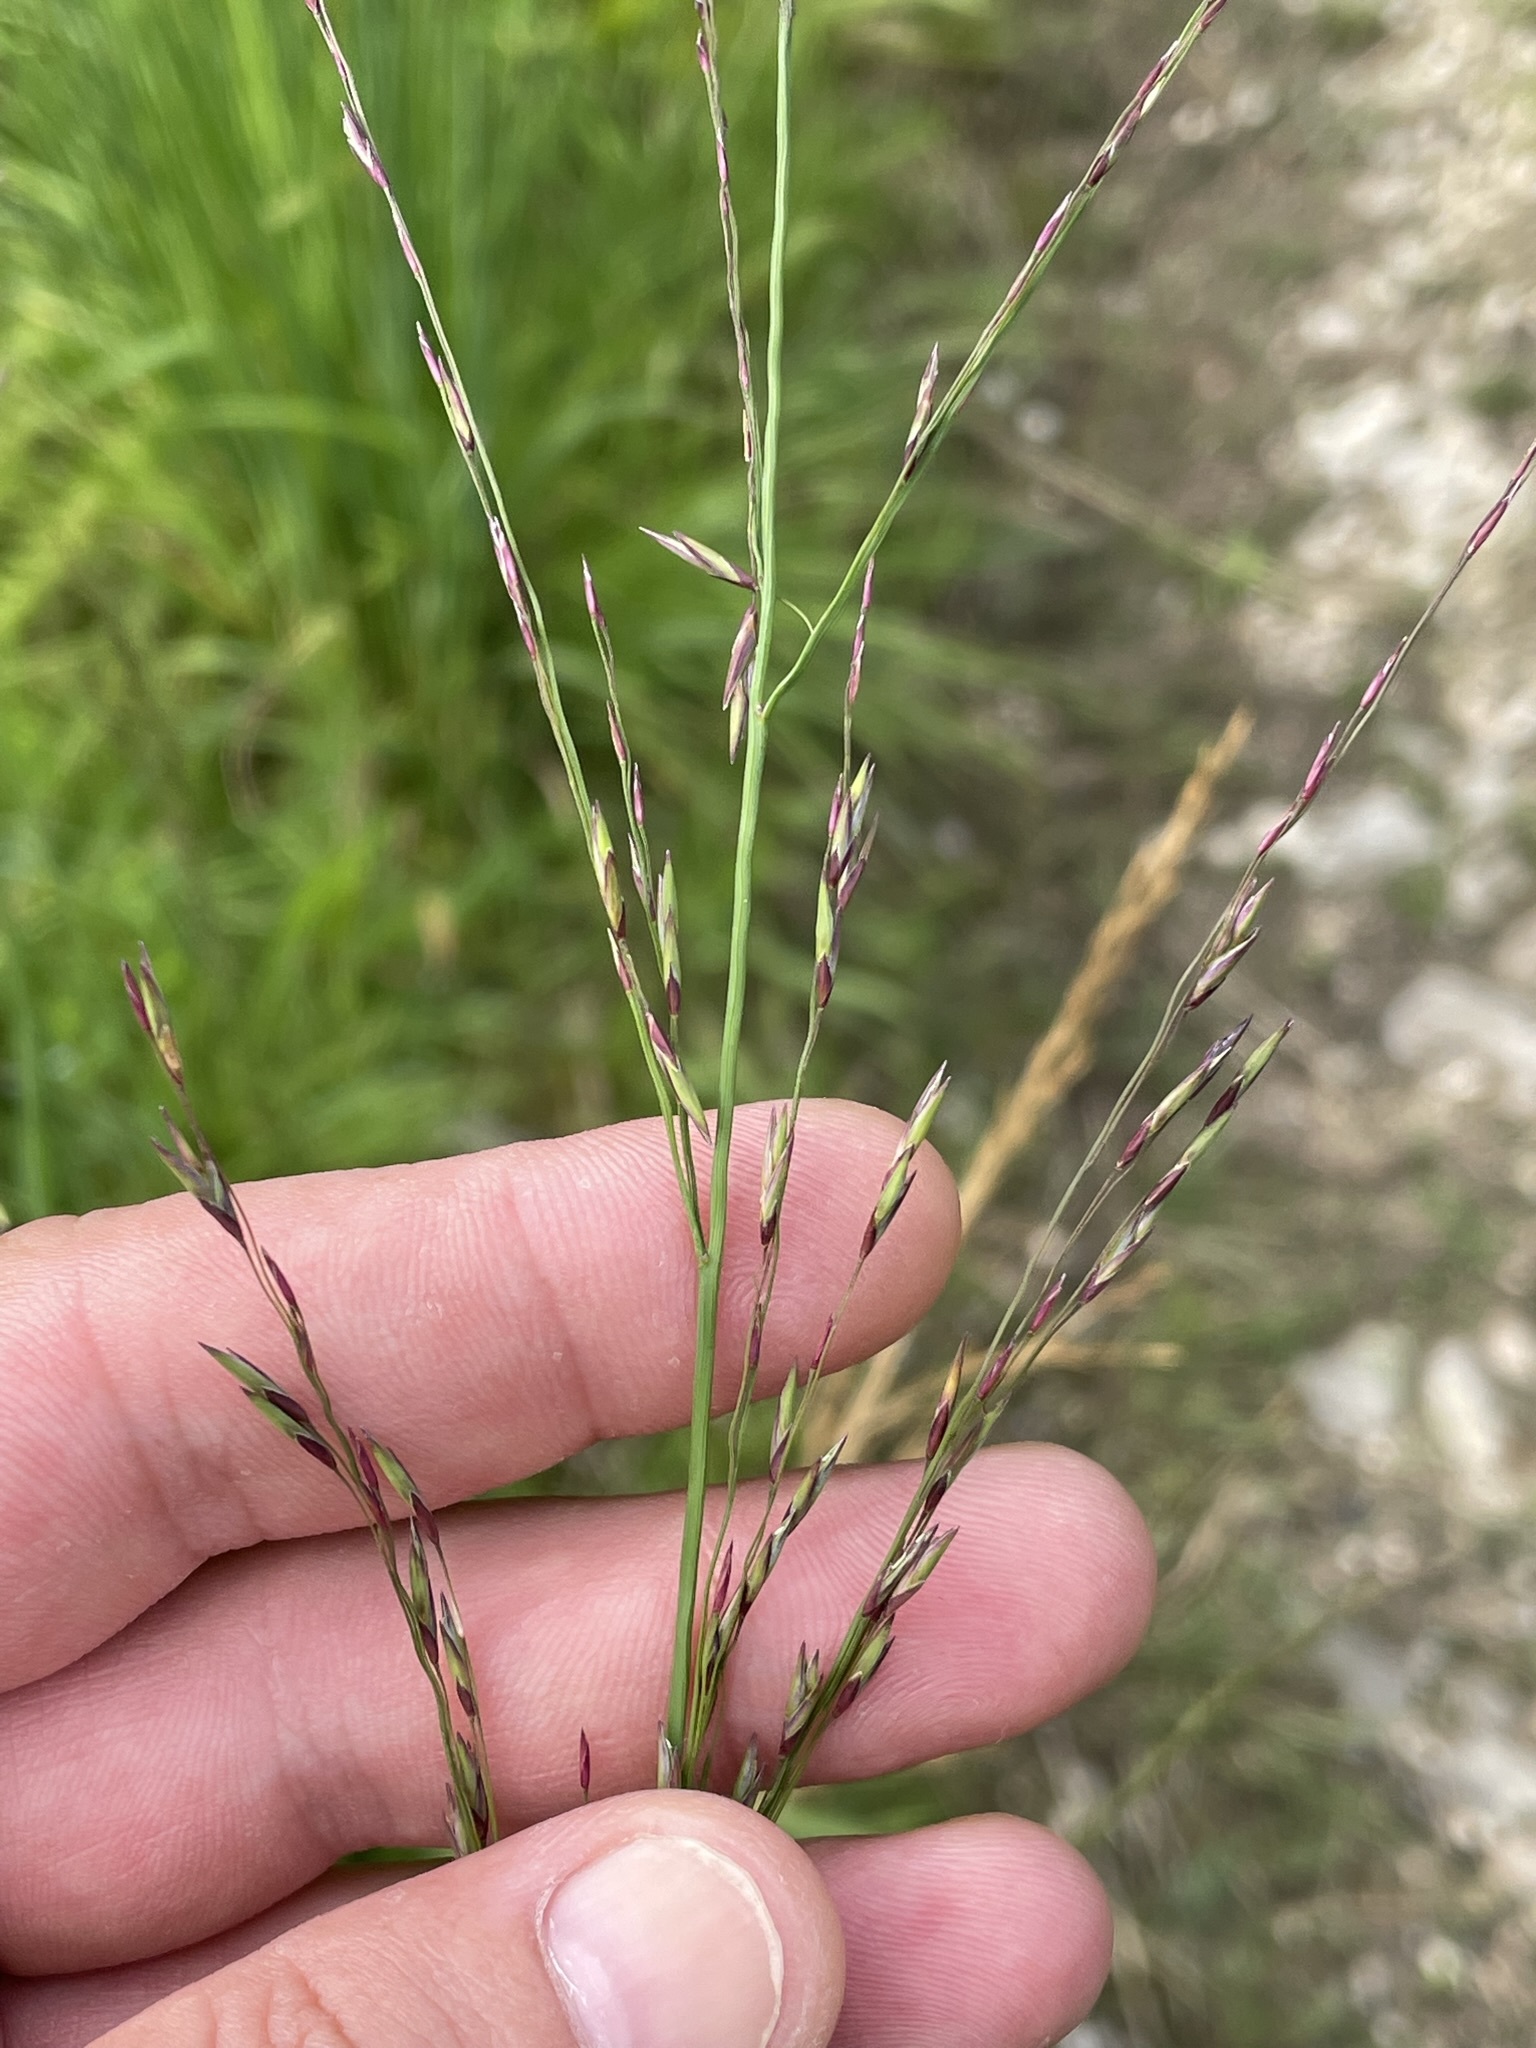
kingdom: Plantae
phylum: Tracheophyta
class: Liliopsida
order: Poales
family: Poaceae
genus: Molinia
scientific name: Molinia caerulea
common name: Purple moor-grass
